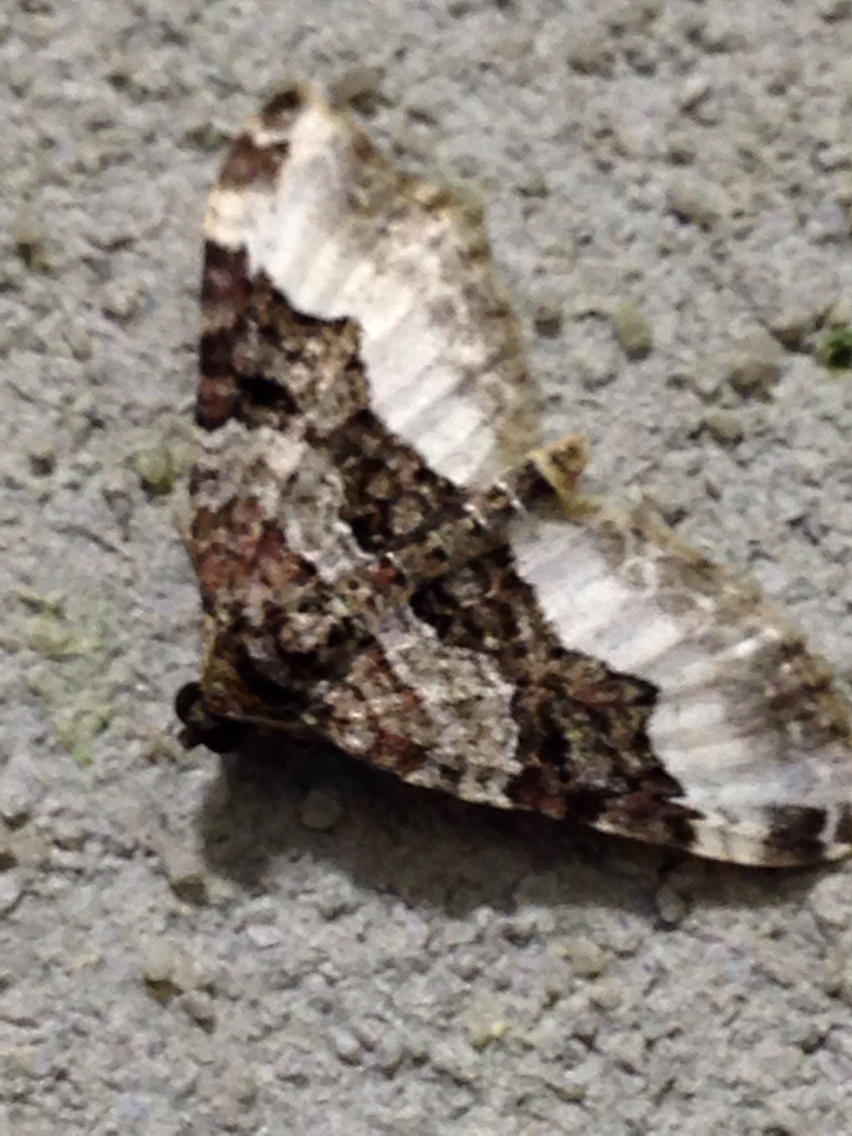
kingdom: Animalia
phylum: Arthropoda
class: Insecta
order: Lepidoptera
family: Geometridae
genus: Euphyia
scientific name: Euphyia intermediata
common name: Sharp-angled carpet
